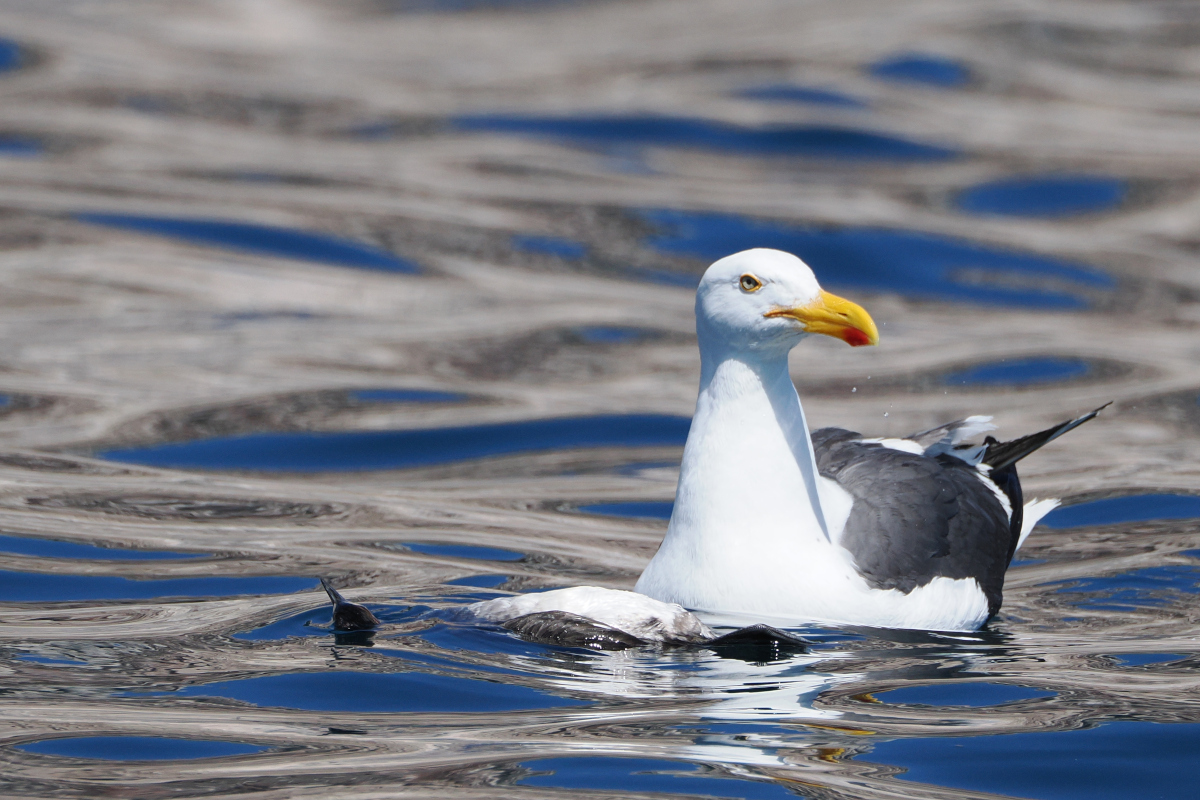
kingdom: Animalia
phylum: Chordata
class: Aves
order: Charadriiformes
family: Laridae
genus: Larus
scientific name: Larus livens
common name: Yellow-footed gull
